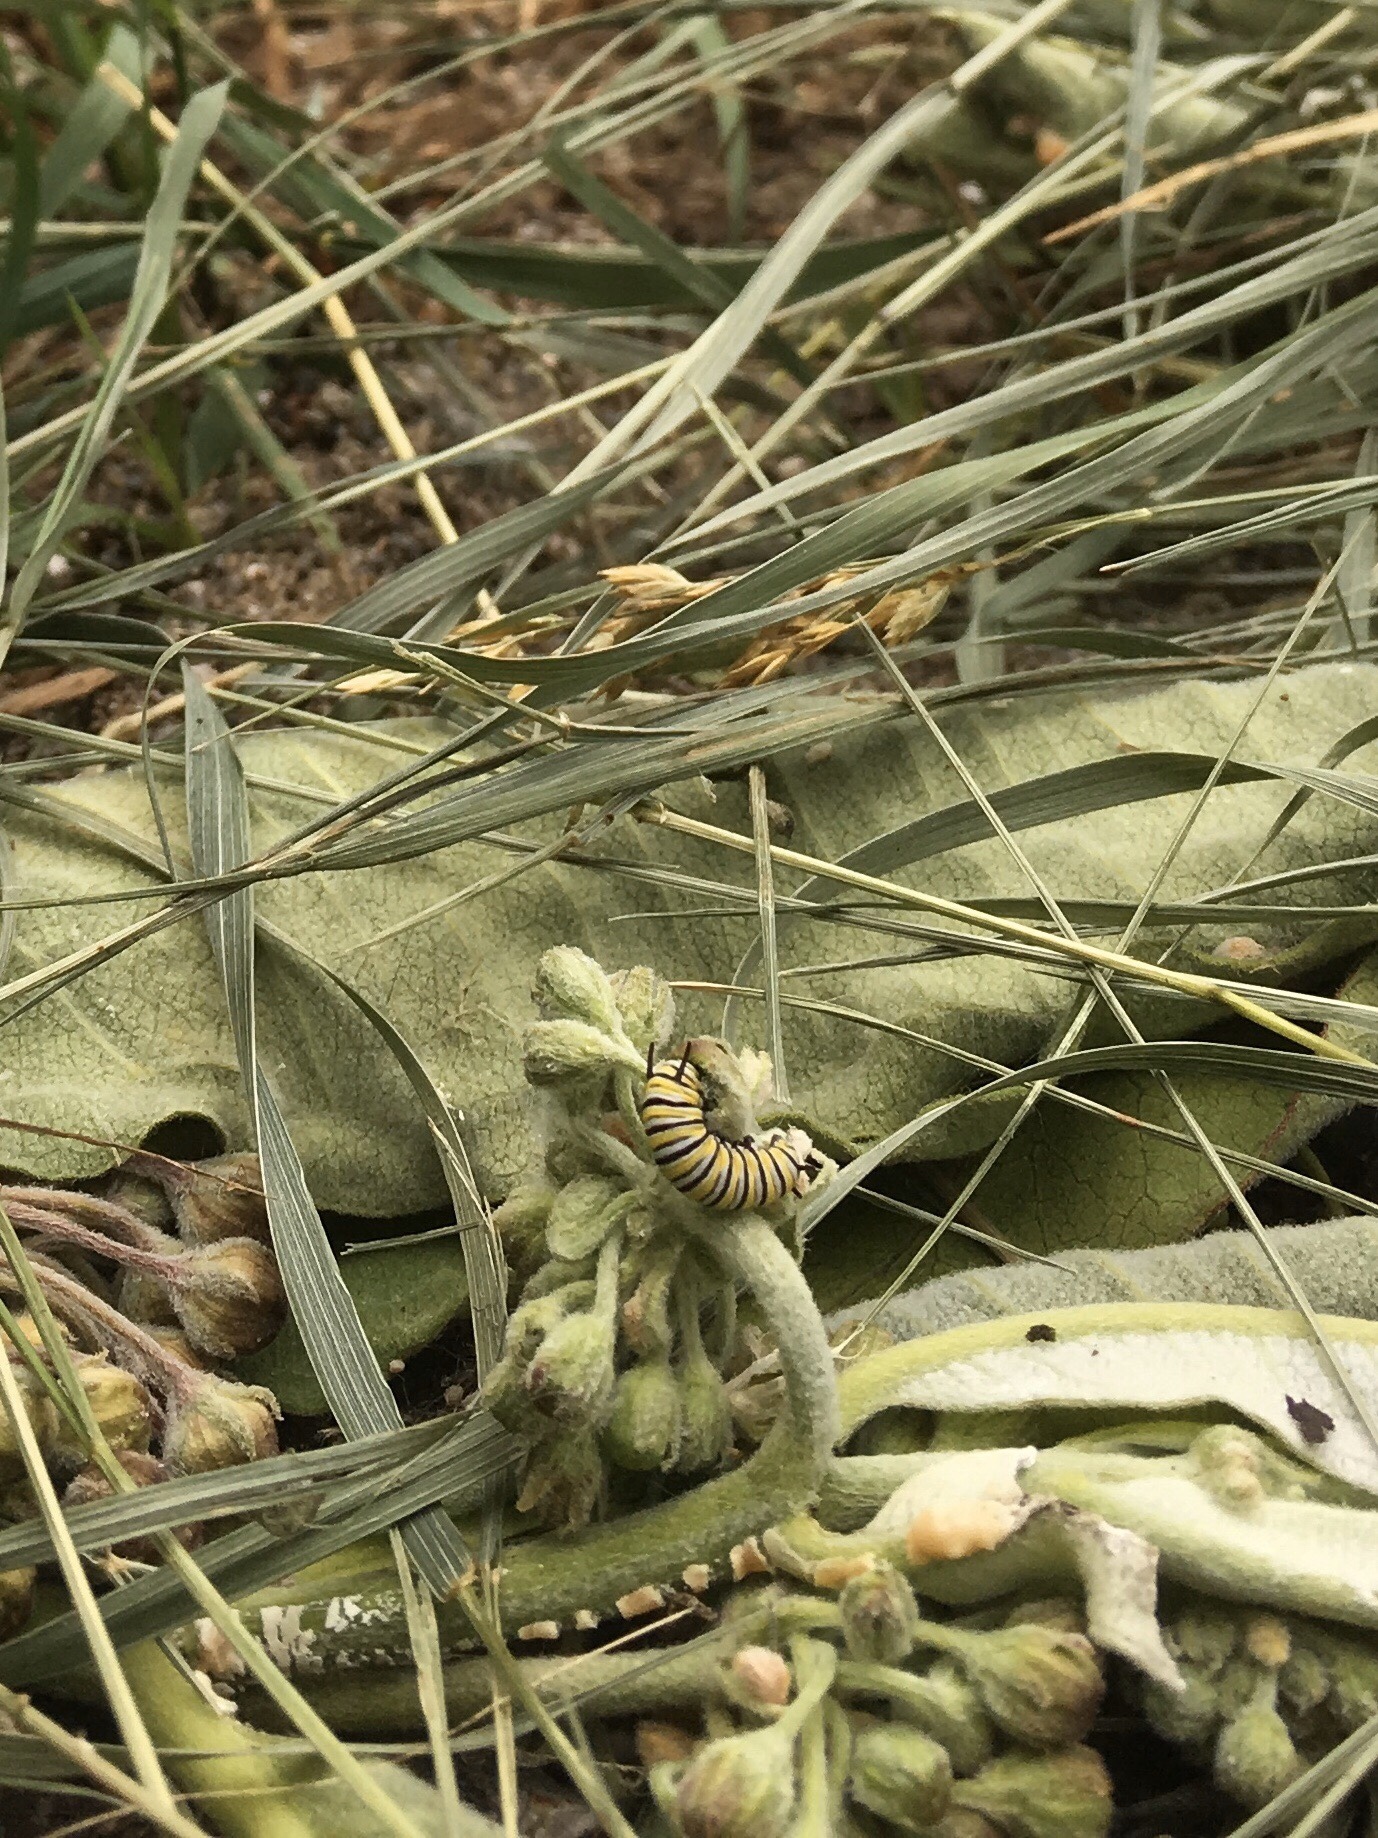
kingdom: Animalia
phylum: Arthropoda
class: Insecta
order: Lepidoptera
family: Nymphalidae
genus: Danaus
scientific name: Danaus plexippus
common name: Monarch
